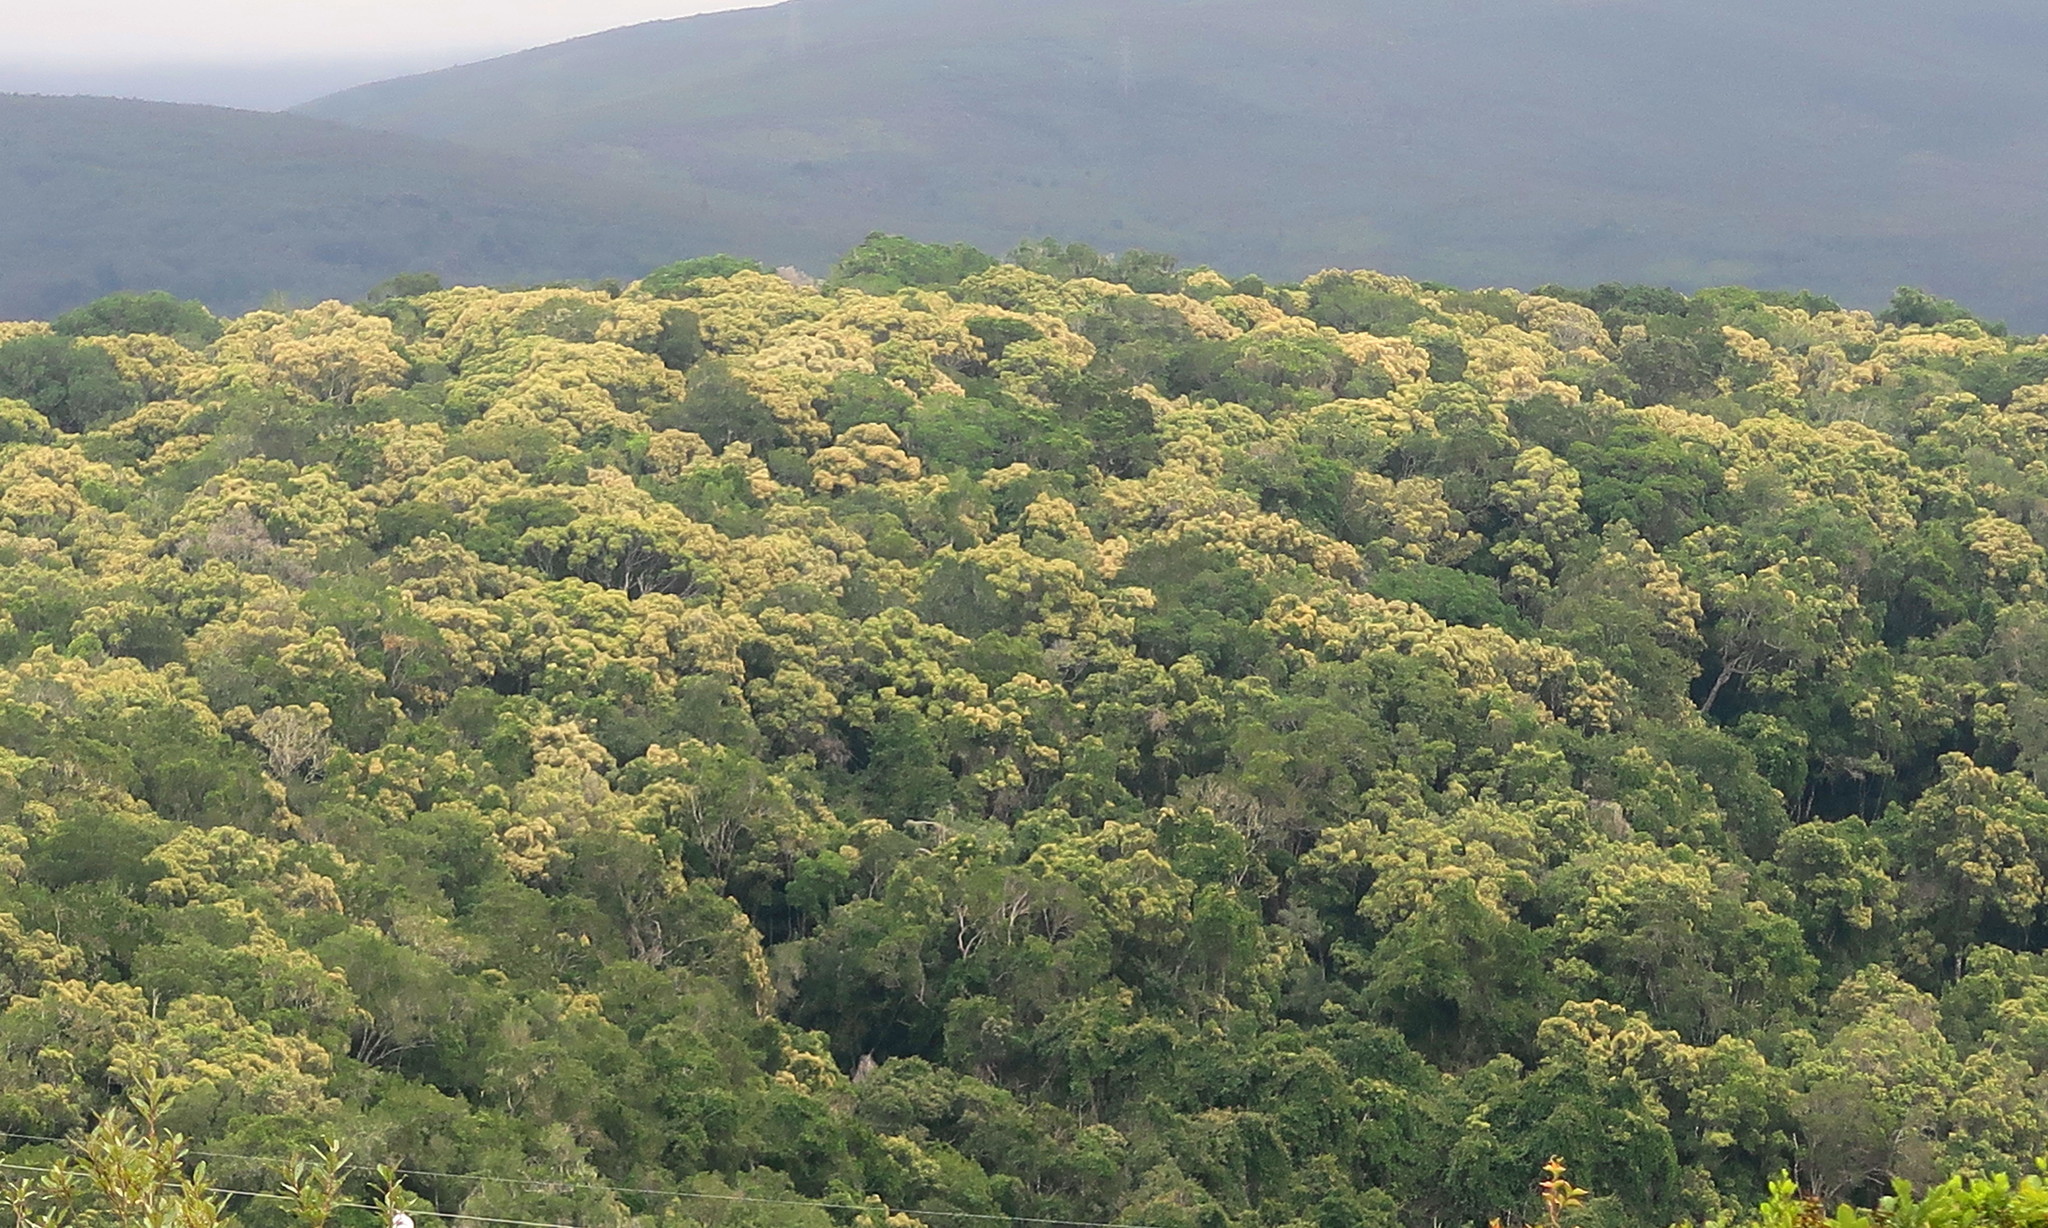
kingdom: Plantae
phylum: Tracheophyta
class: Magnoliopsida
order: Lamiales
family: Oleaceae
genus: Olea
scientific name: Olea capensis
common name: Black ironwood
